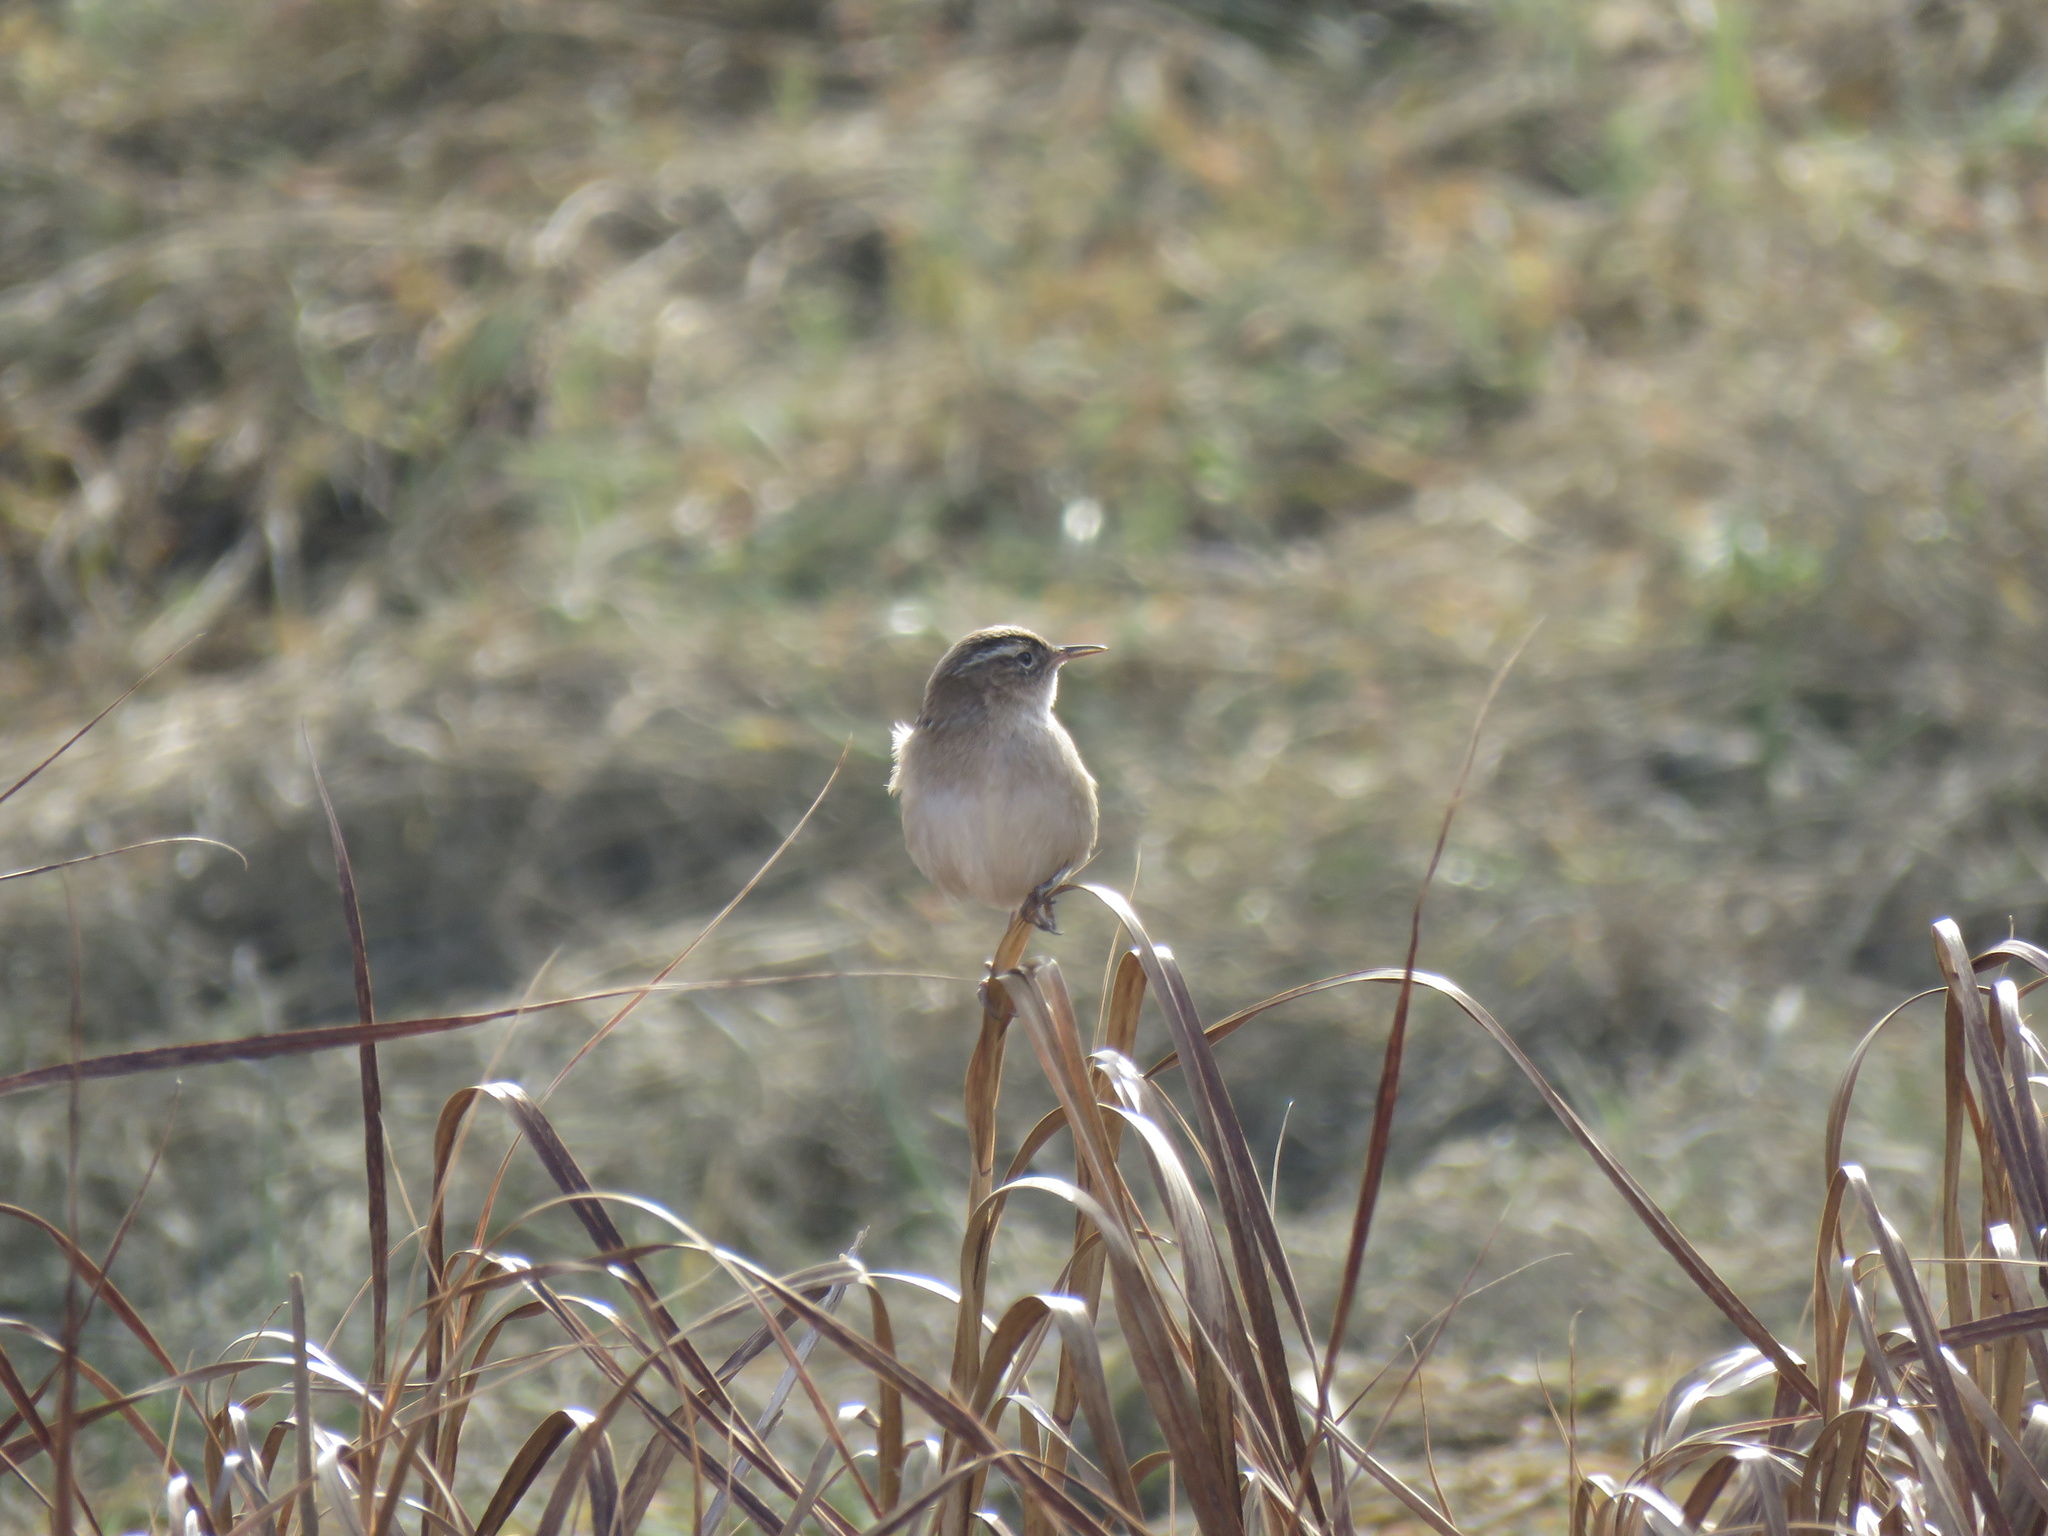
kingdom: Animalia
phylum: Chordata
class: Aves
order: Passeriformes
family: Troglodytidae
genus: Cistothorus
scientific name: Cistothorus palustris
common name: Marsh wren
